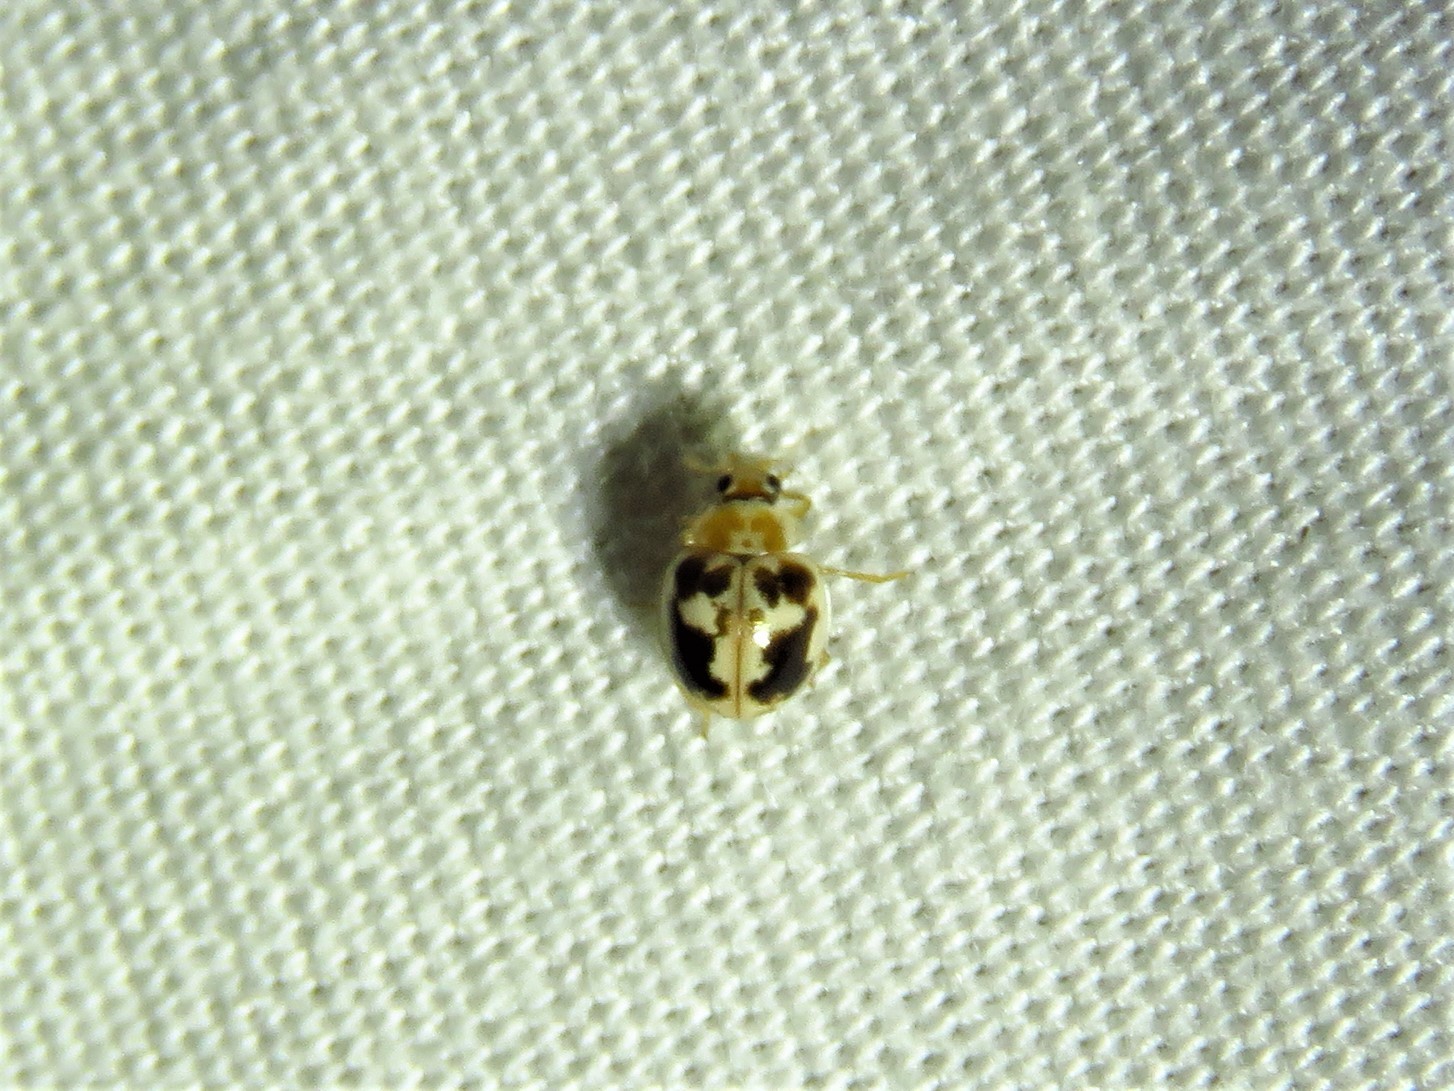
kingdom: Animalia
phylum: Arthropoda
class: Insecta
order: Coleoptera
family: Coccinellidae
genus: Psyllobora
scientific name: Psyllobora renifer
